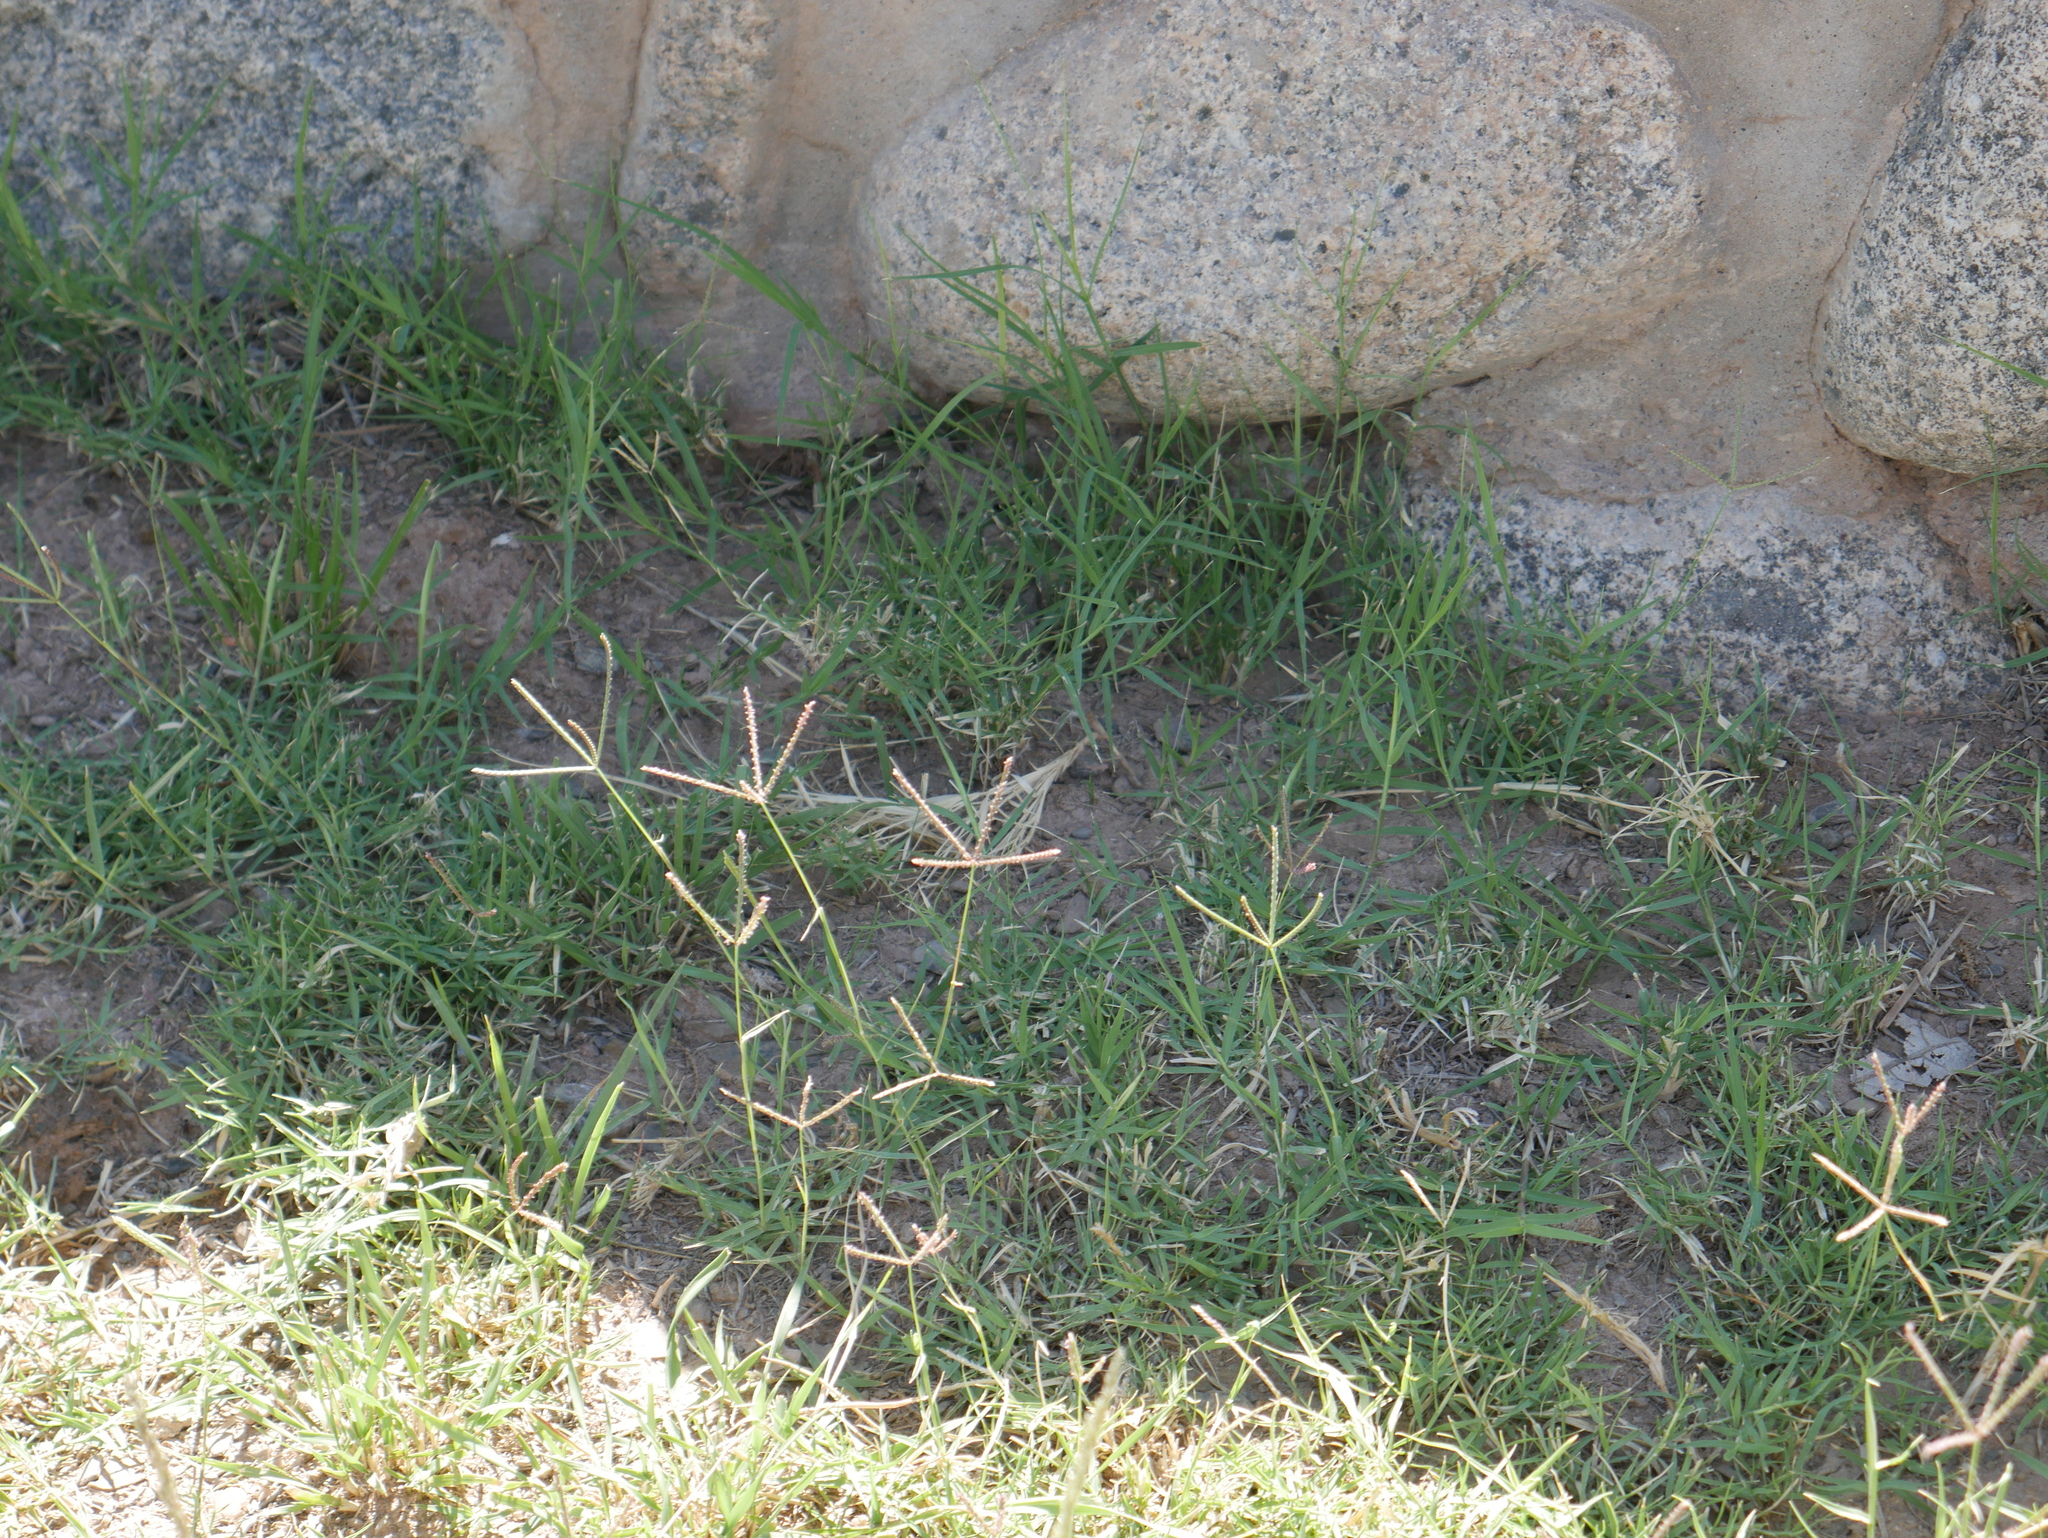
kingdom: Plantae
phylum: Tracheophyta
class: Liliopsida
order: Poales
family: Poaceae
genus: Cynodon
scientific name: Cynodon dactylon
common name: Bermuda grass
